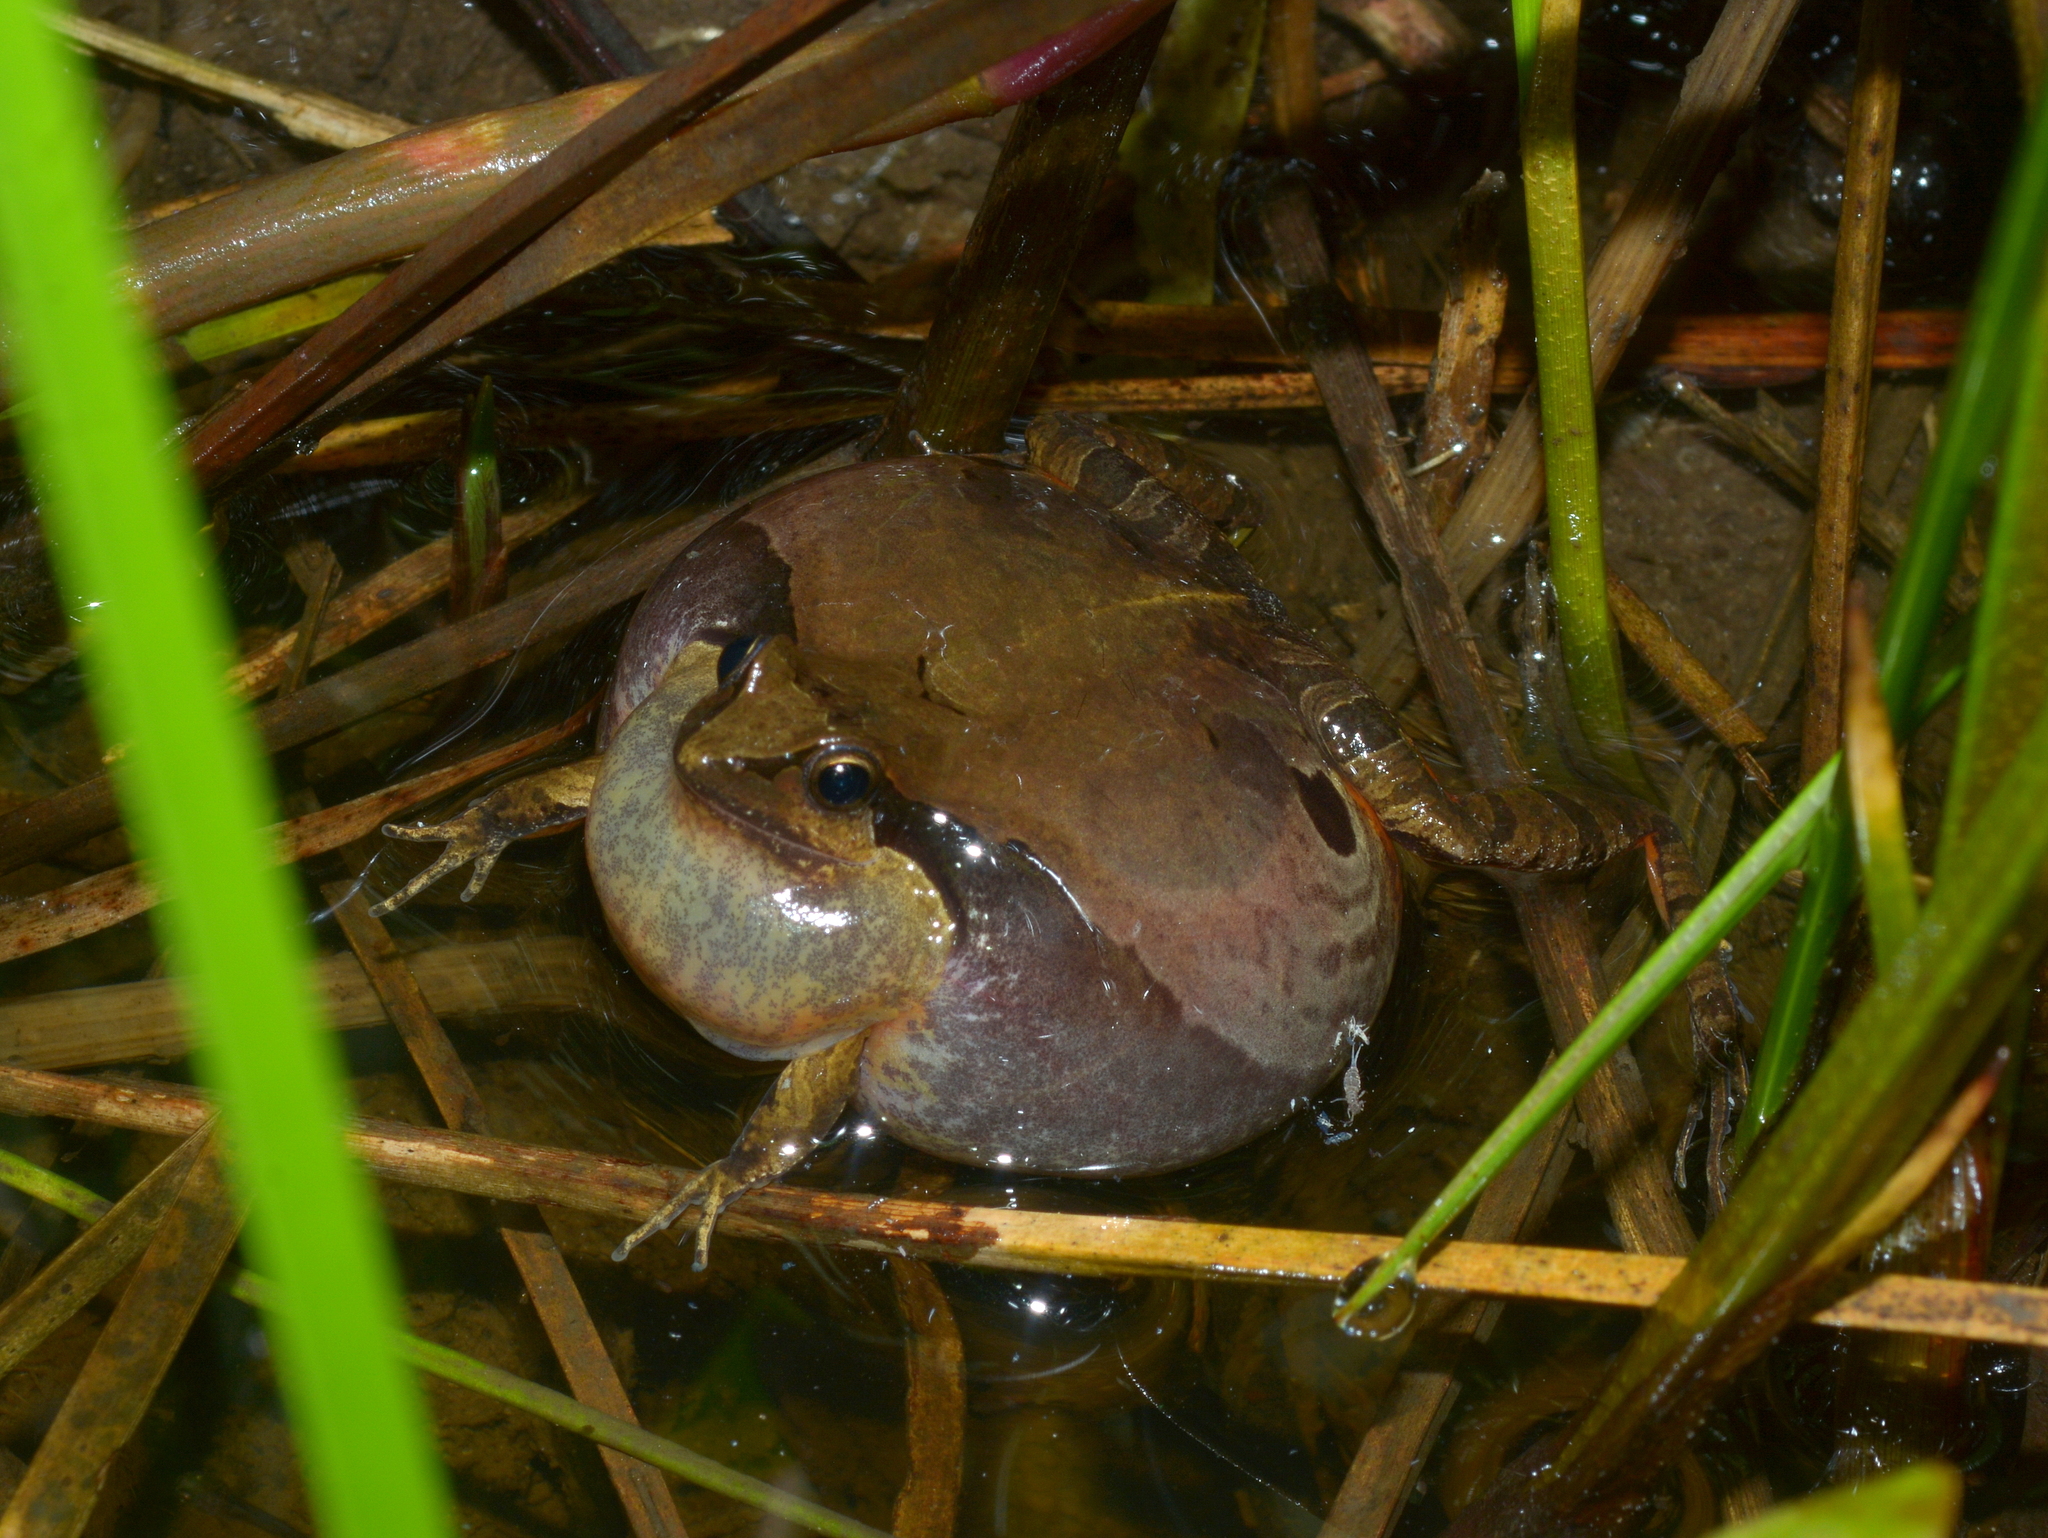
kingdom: Animalia
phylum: Chordata
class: Amphibia
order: Anura
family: Leptodactylidae
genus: Physalaemus
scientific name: Physalaemus gracilis
